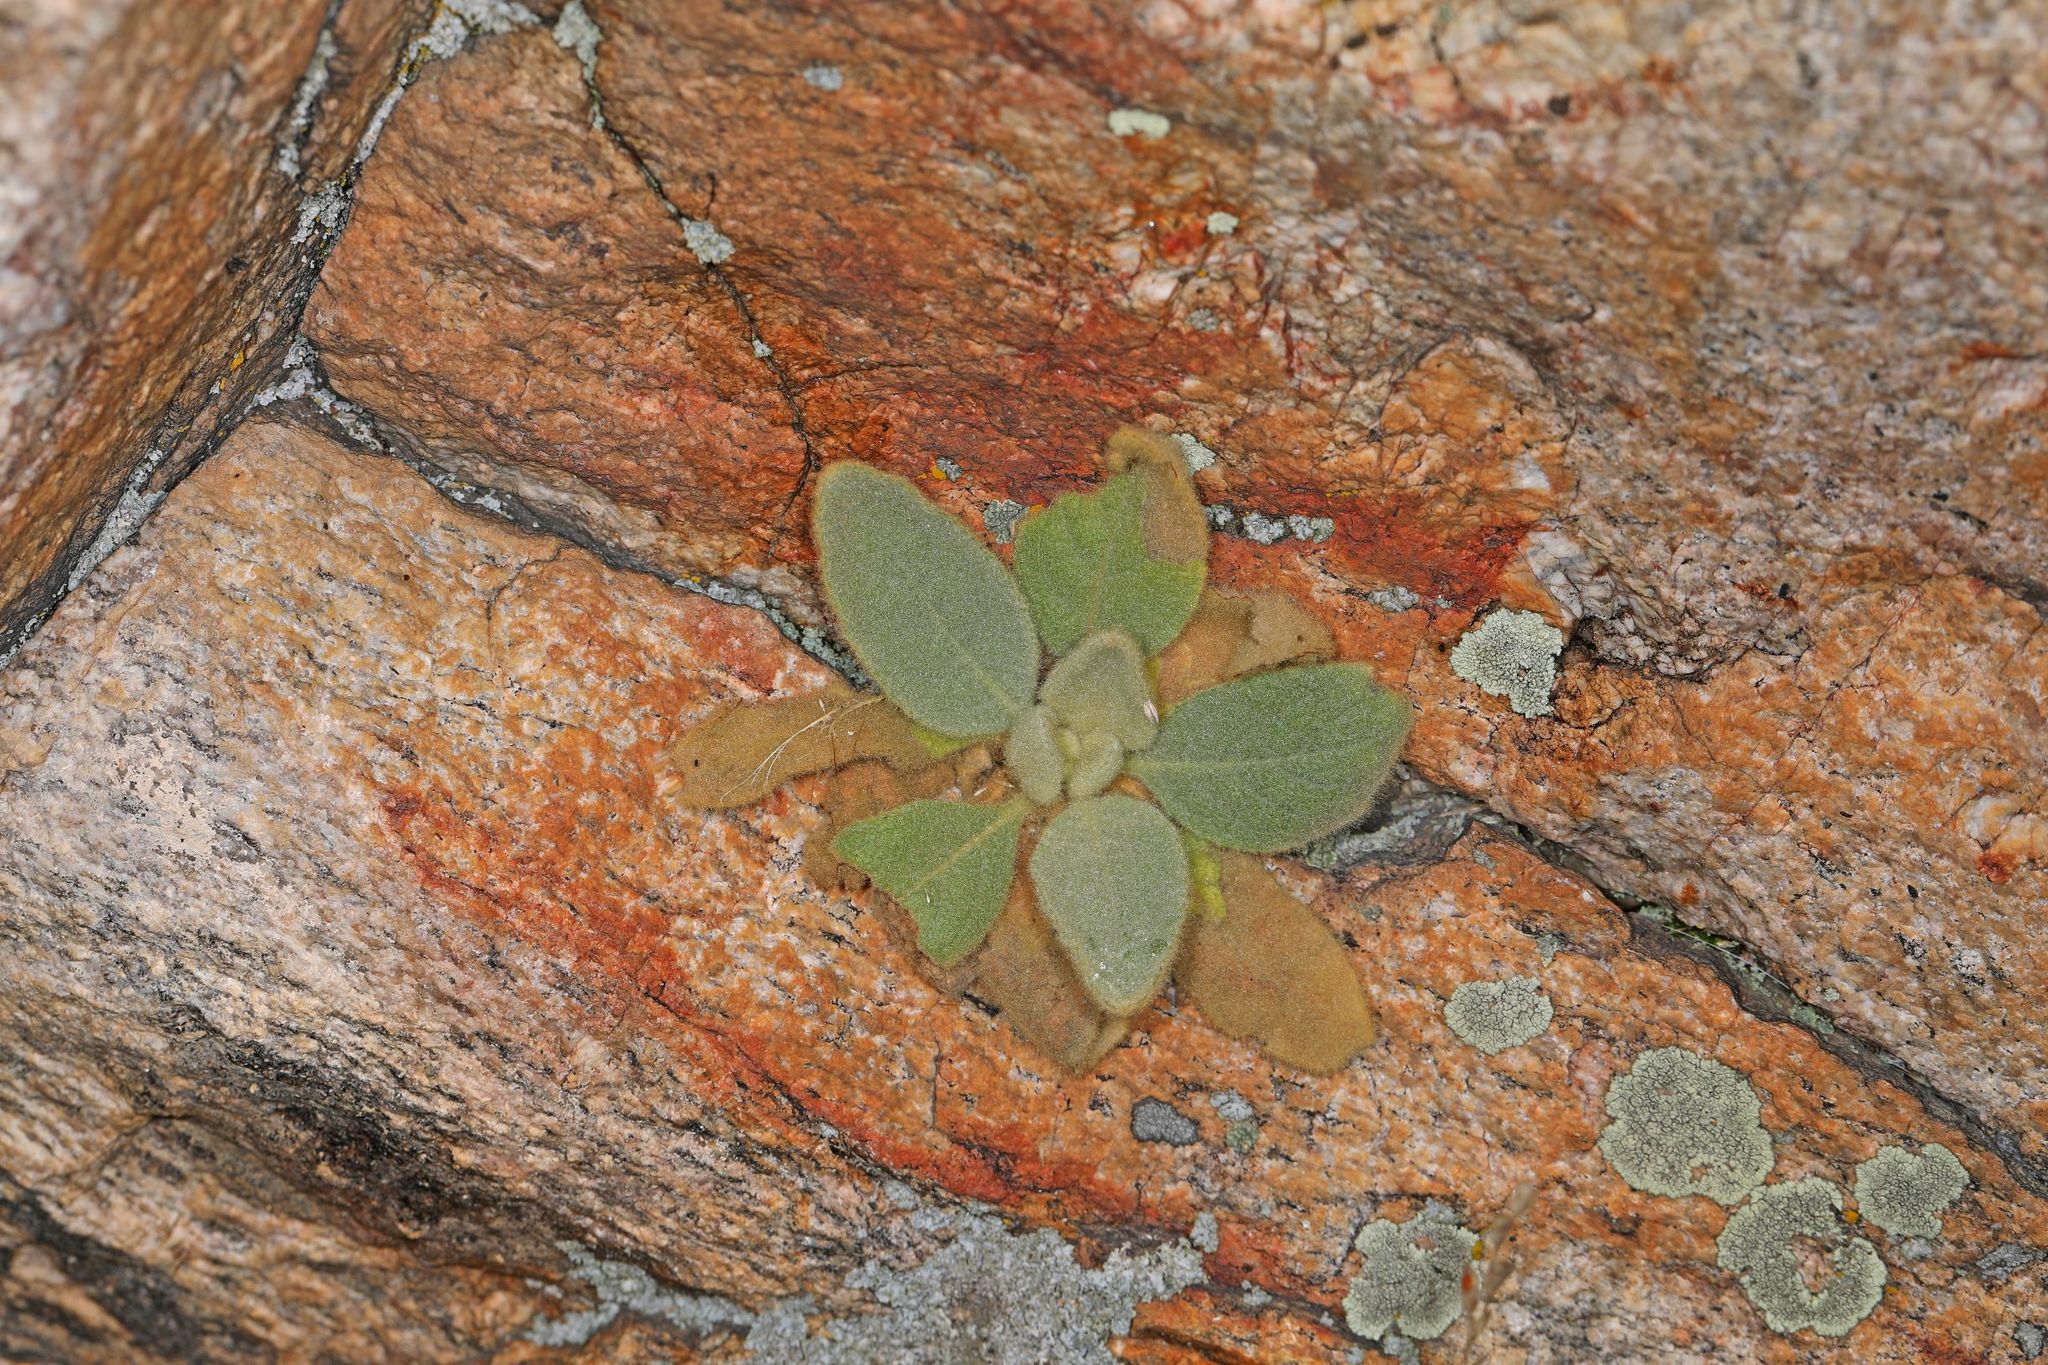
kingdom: Plantae
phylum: Tracheophyta
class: Magnoliopsida
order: Lamiales
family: Scrophulariaceae
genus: Verbascum
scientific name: Verbascum thapsus
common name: Common mullein
